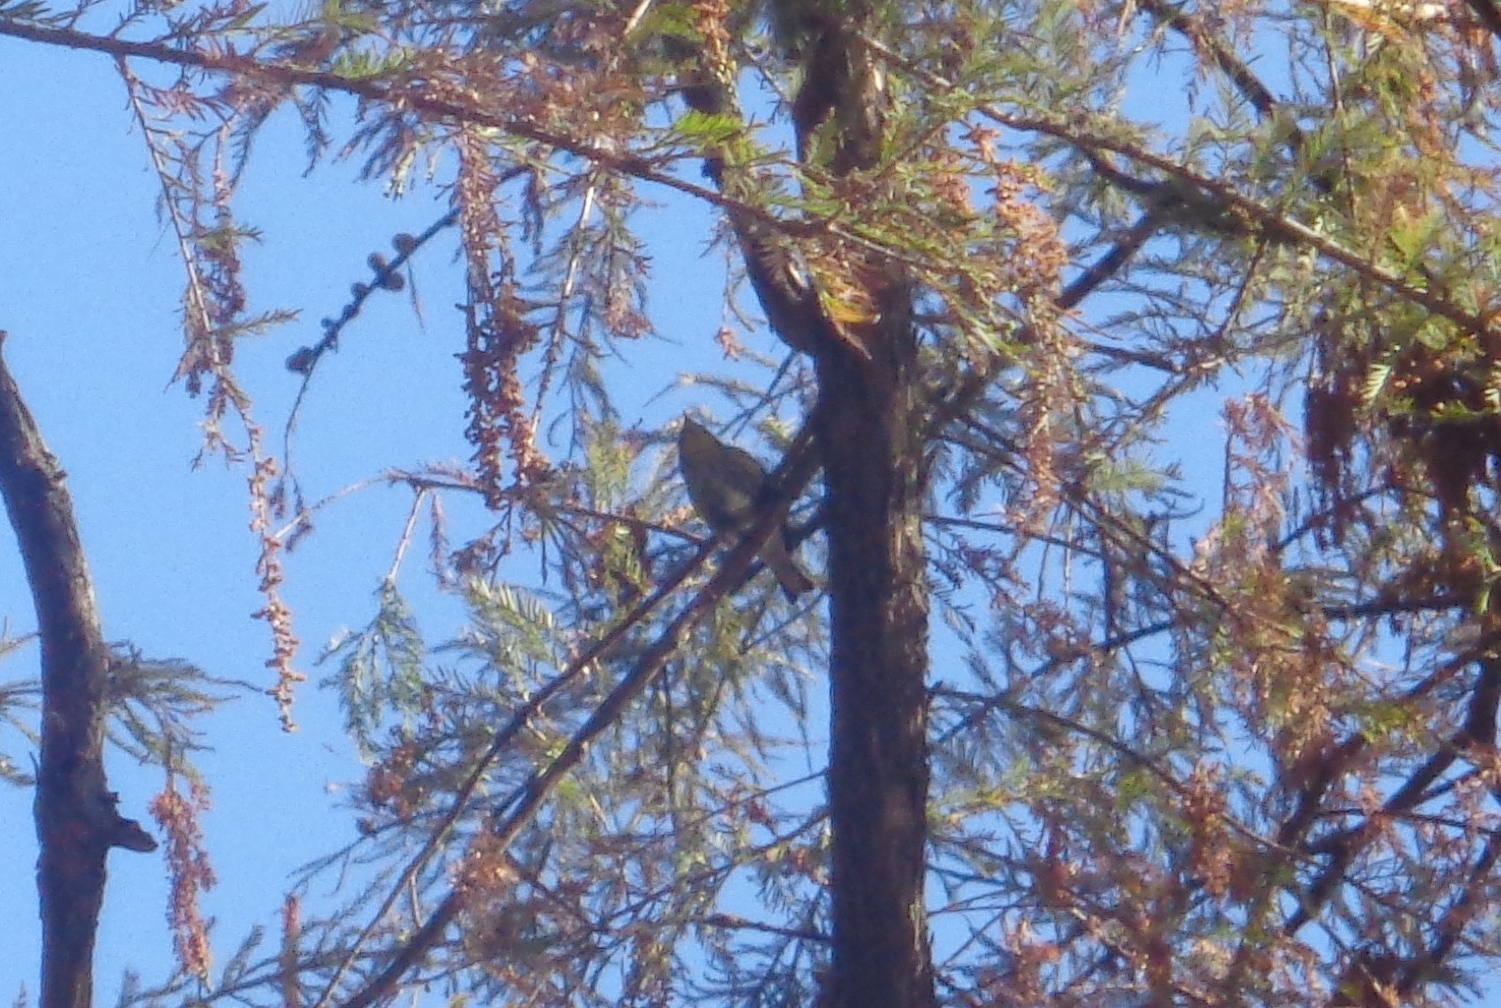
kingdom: Animalia
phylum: Chordata
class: Aves
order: Passeriformes
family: Parulidae
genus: Setophaga
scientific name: Setophaga auduboni
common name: Audubon's warbler
